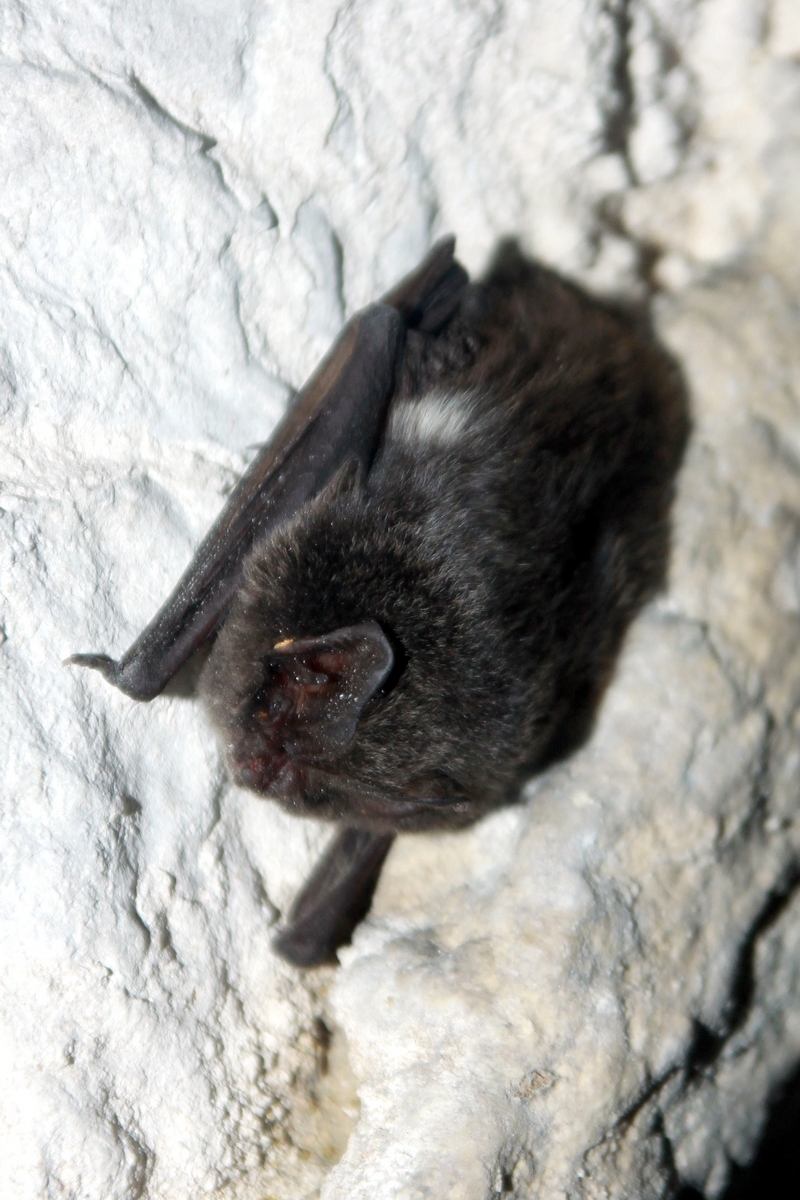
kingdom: Animalia
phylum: Chordata
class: Mammalia
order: Chiroptera
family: Vespertilionidae
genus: Barbastella
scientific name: Barbastella barbastellus
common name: Western barbastelle
